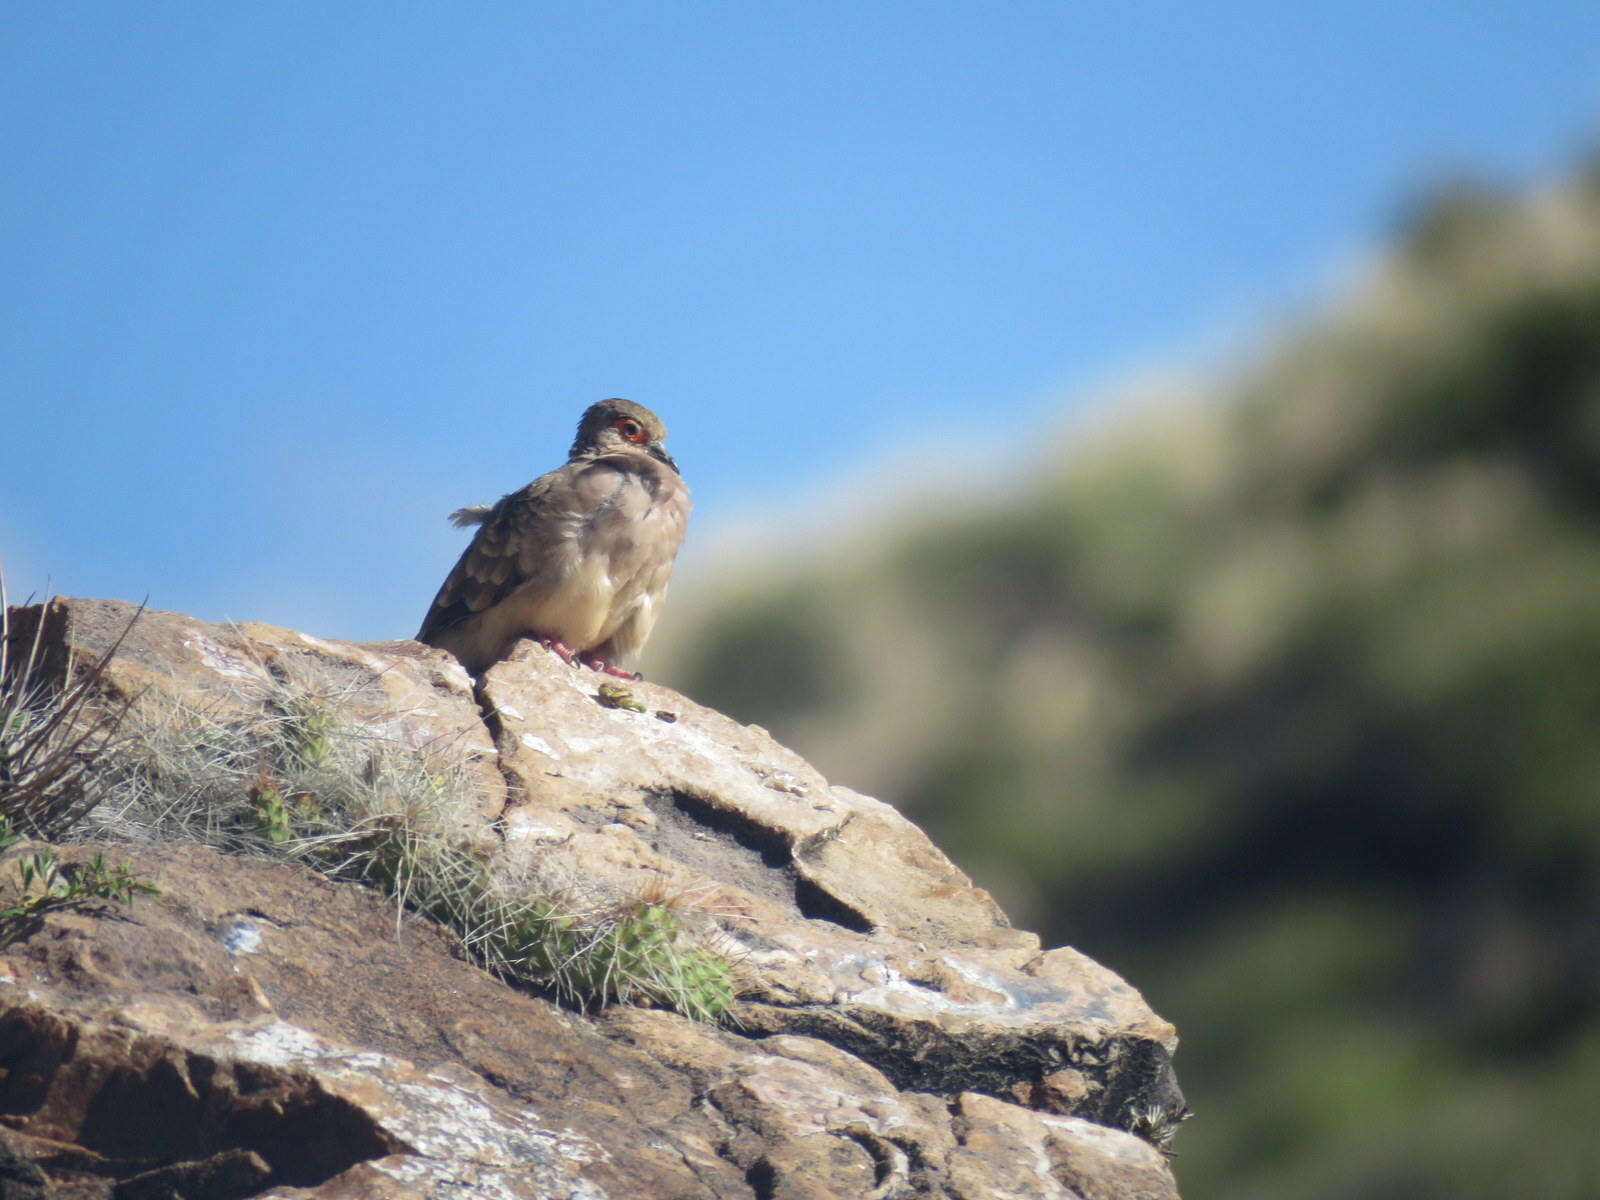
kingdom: Animalia
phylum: Chordata
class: Aves
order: Columbiformes
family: Columbidae
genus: Metriopelia
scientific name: Metriopelia ceciliae
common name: Bare-faced ground dove
